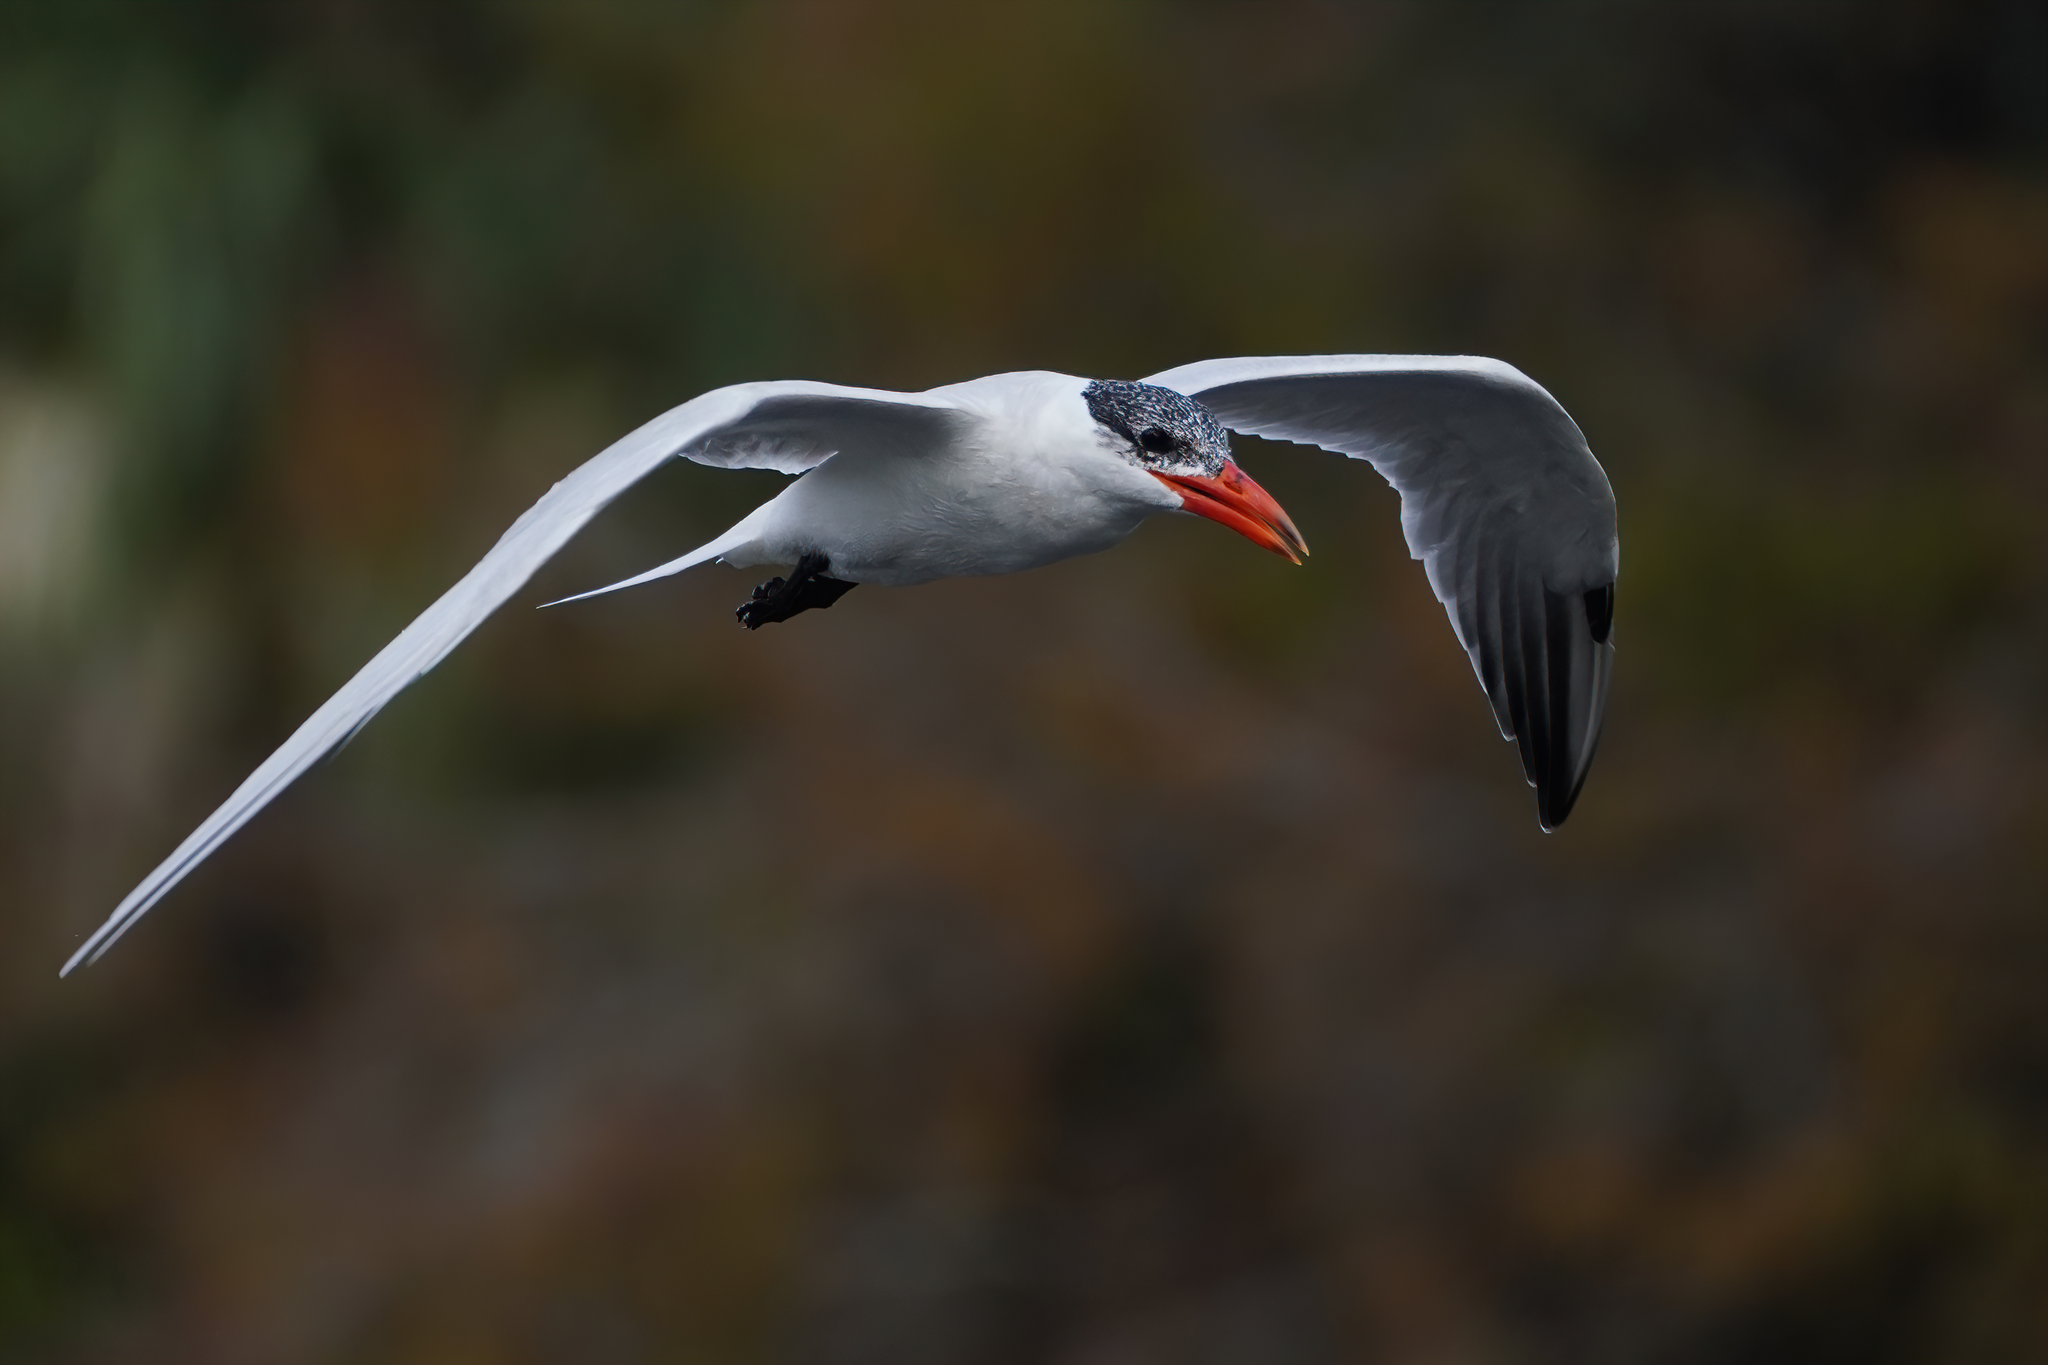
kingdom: Animalia
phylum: Chordata
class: Aves
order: Charadriiformes
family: Laridae
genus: Hydroprogne
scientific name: Hydroprogne caspia
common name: Caspian tern
